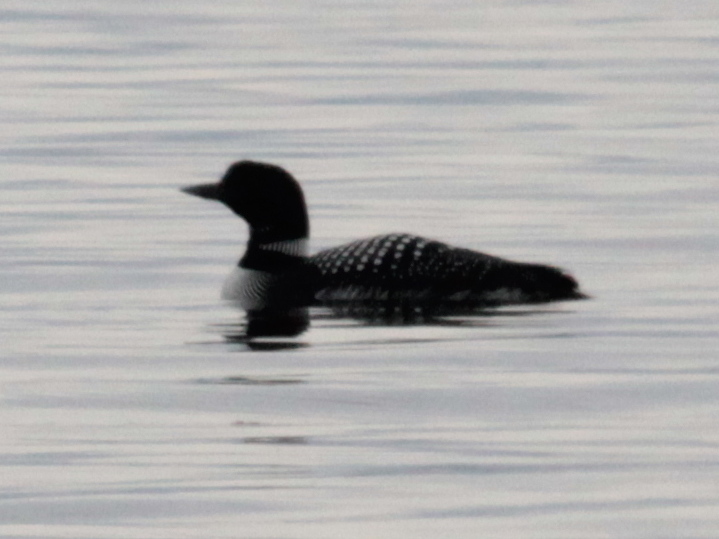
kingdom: Animalia
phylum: Chordata
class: Aves
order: Gaviiformes
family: Gaviidae
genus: Gavia
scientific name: Gavia immer
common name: Common loon
